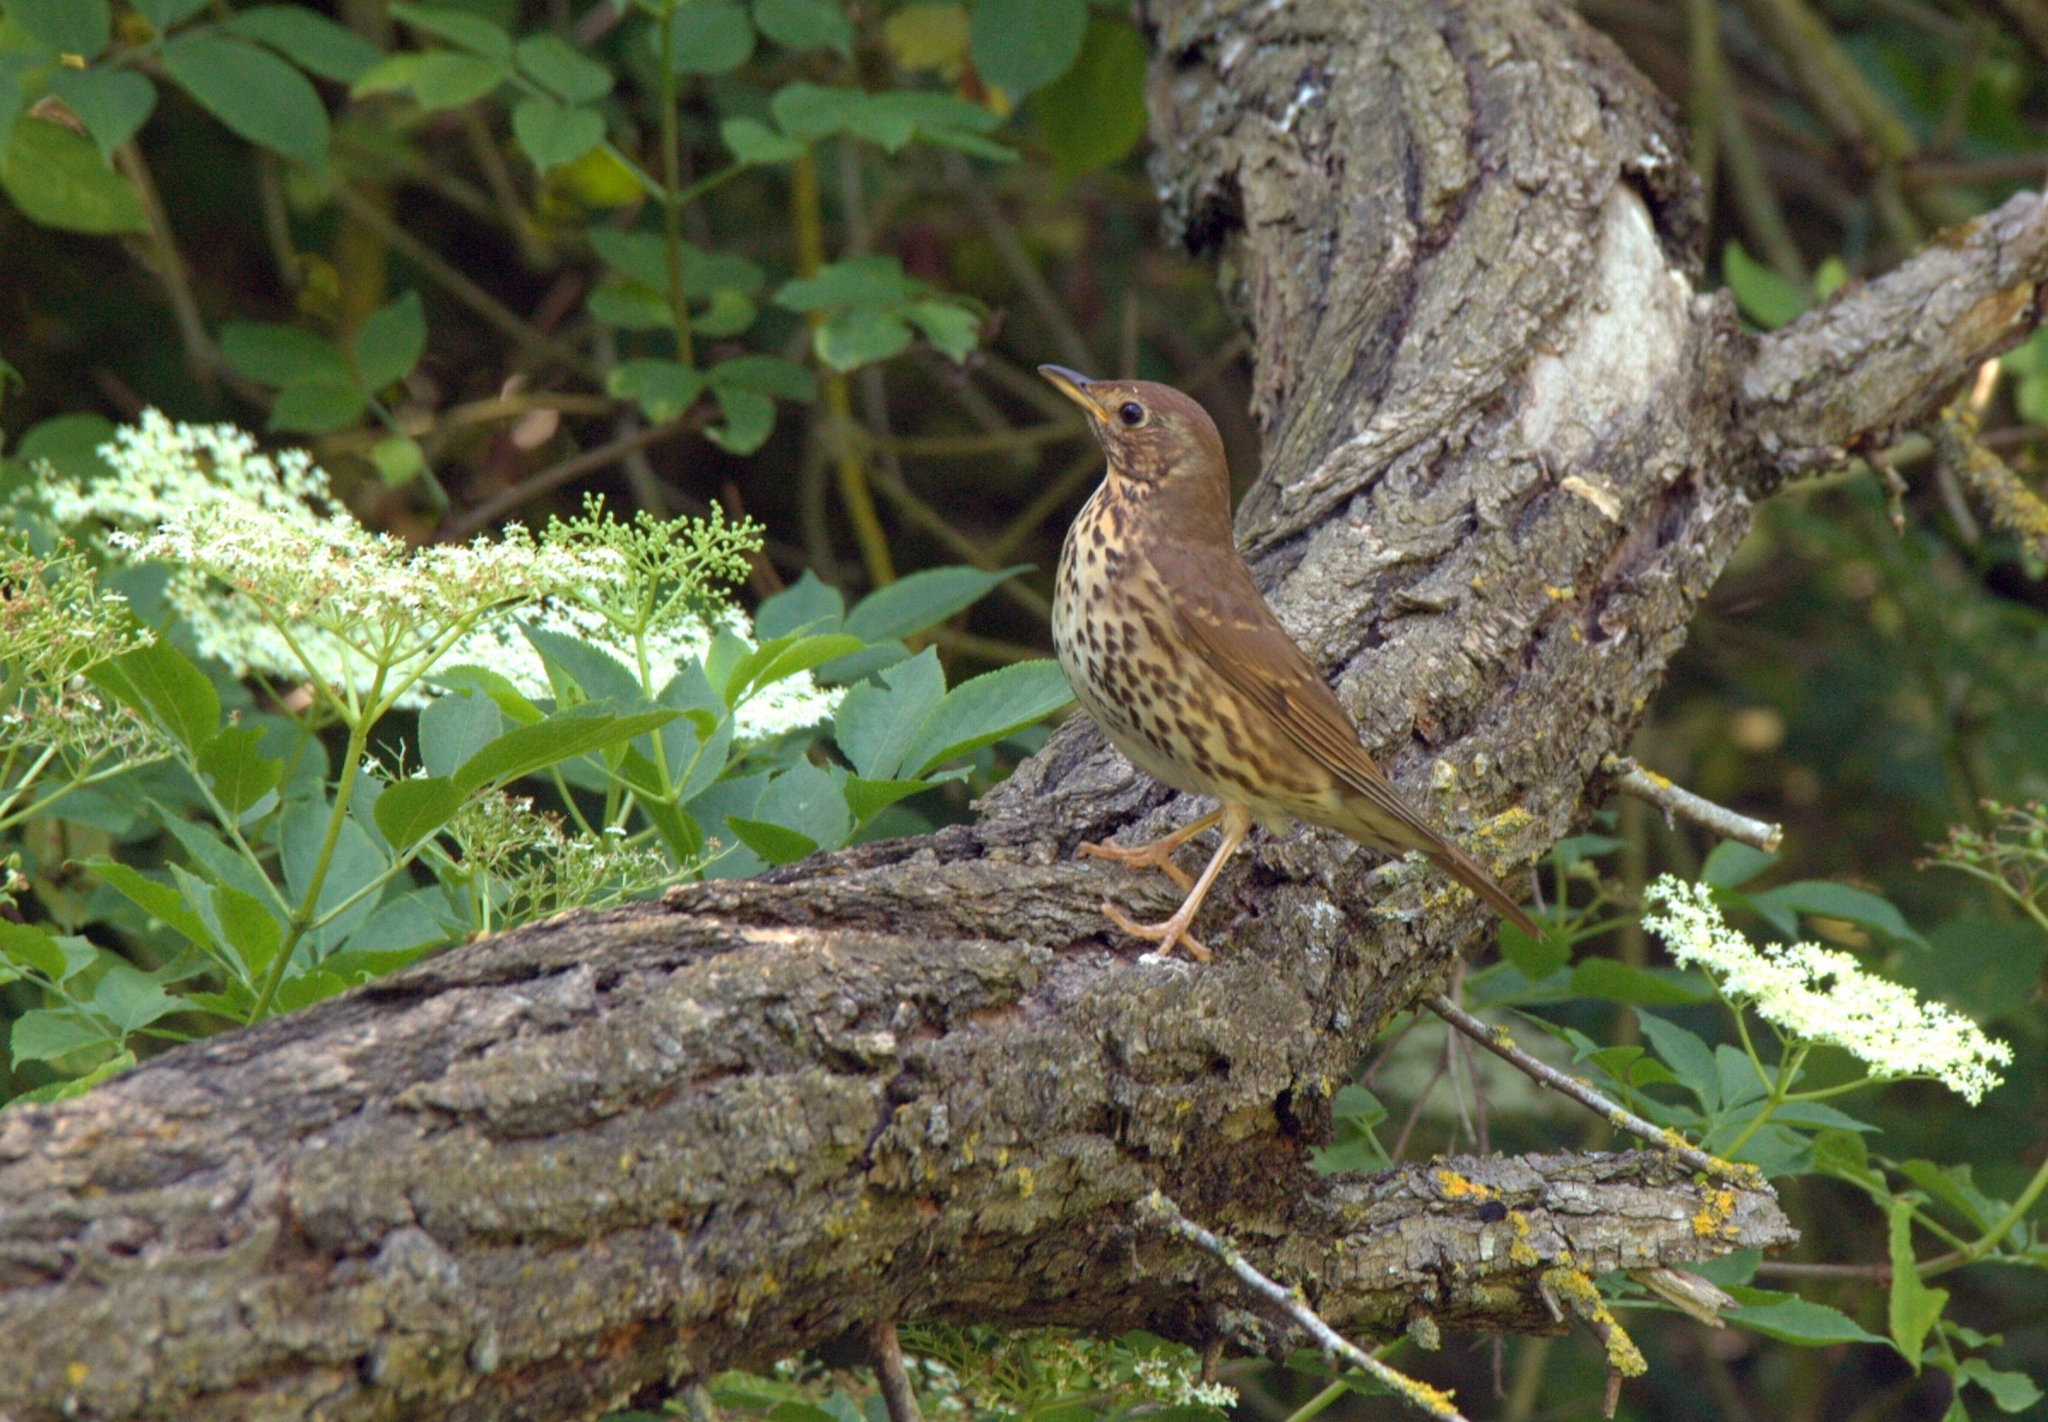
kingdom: Animalia
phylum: Chordata
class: Aves
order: Passeriformes
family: Turdidae
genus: Turdus
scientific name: Turdus philomelos
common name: Song thrush
